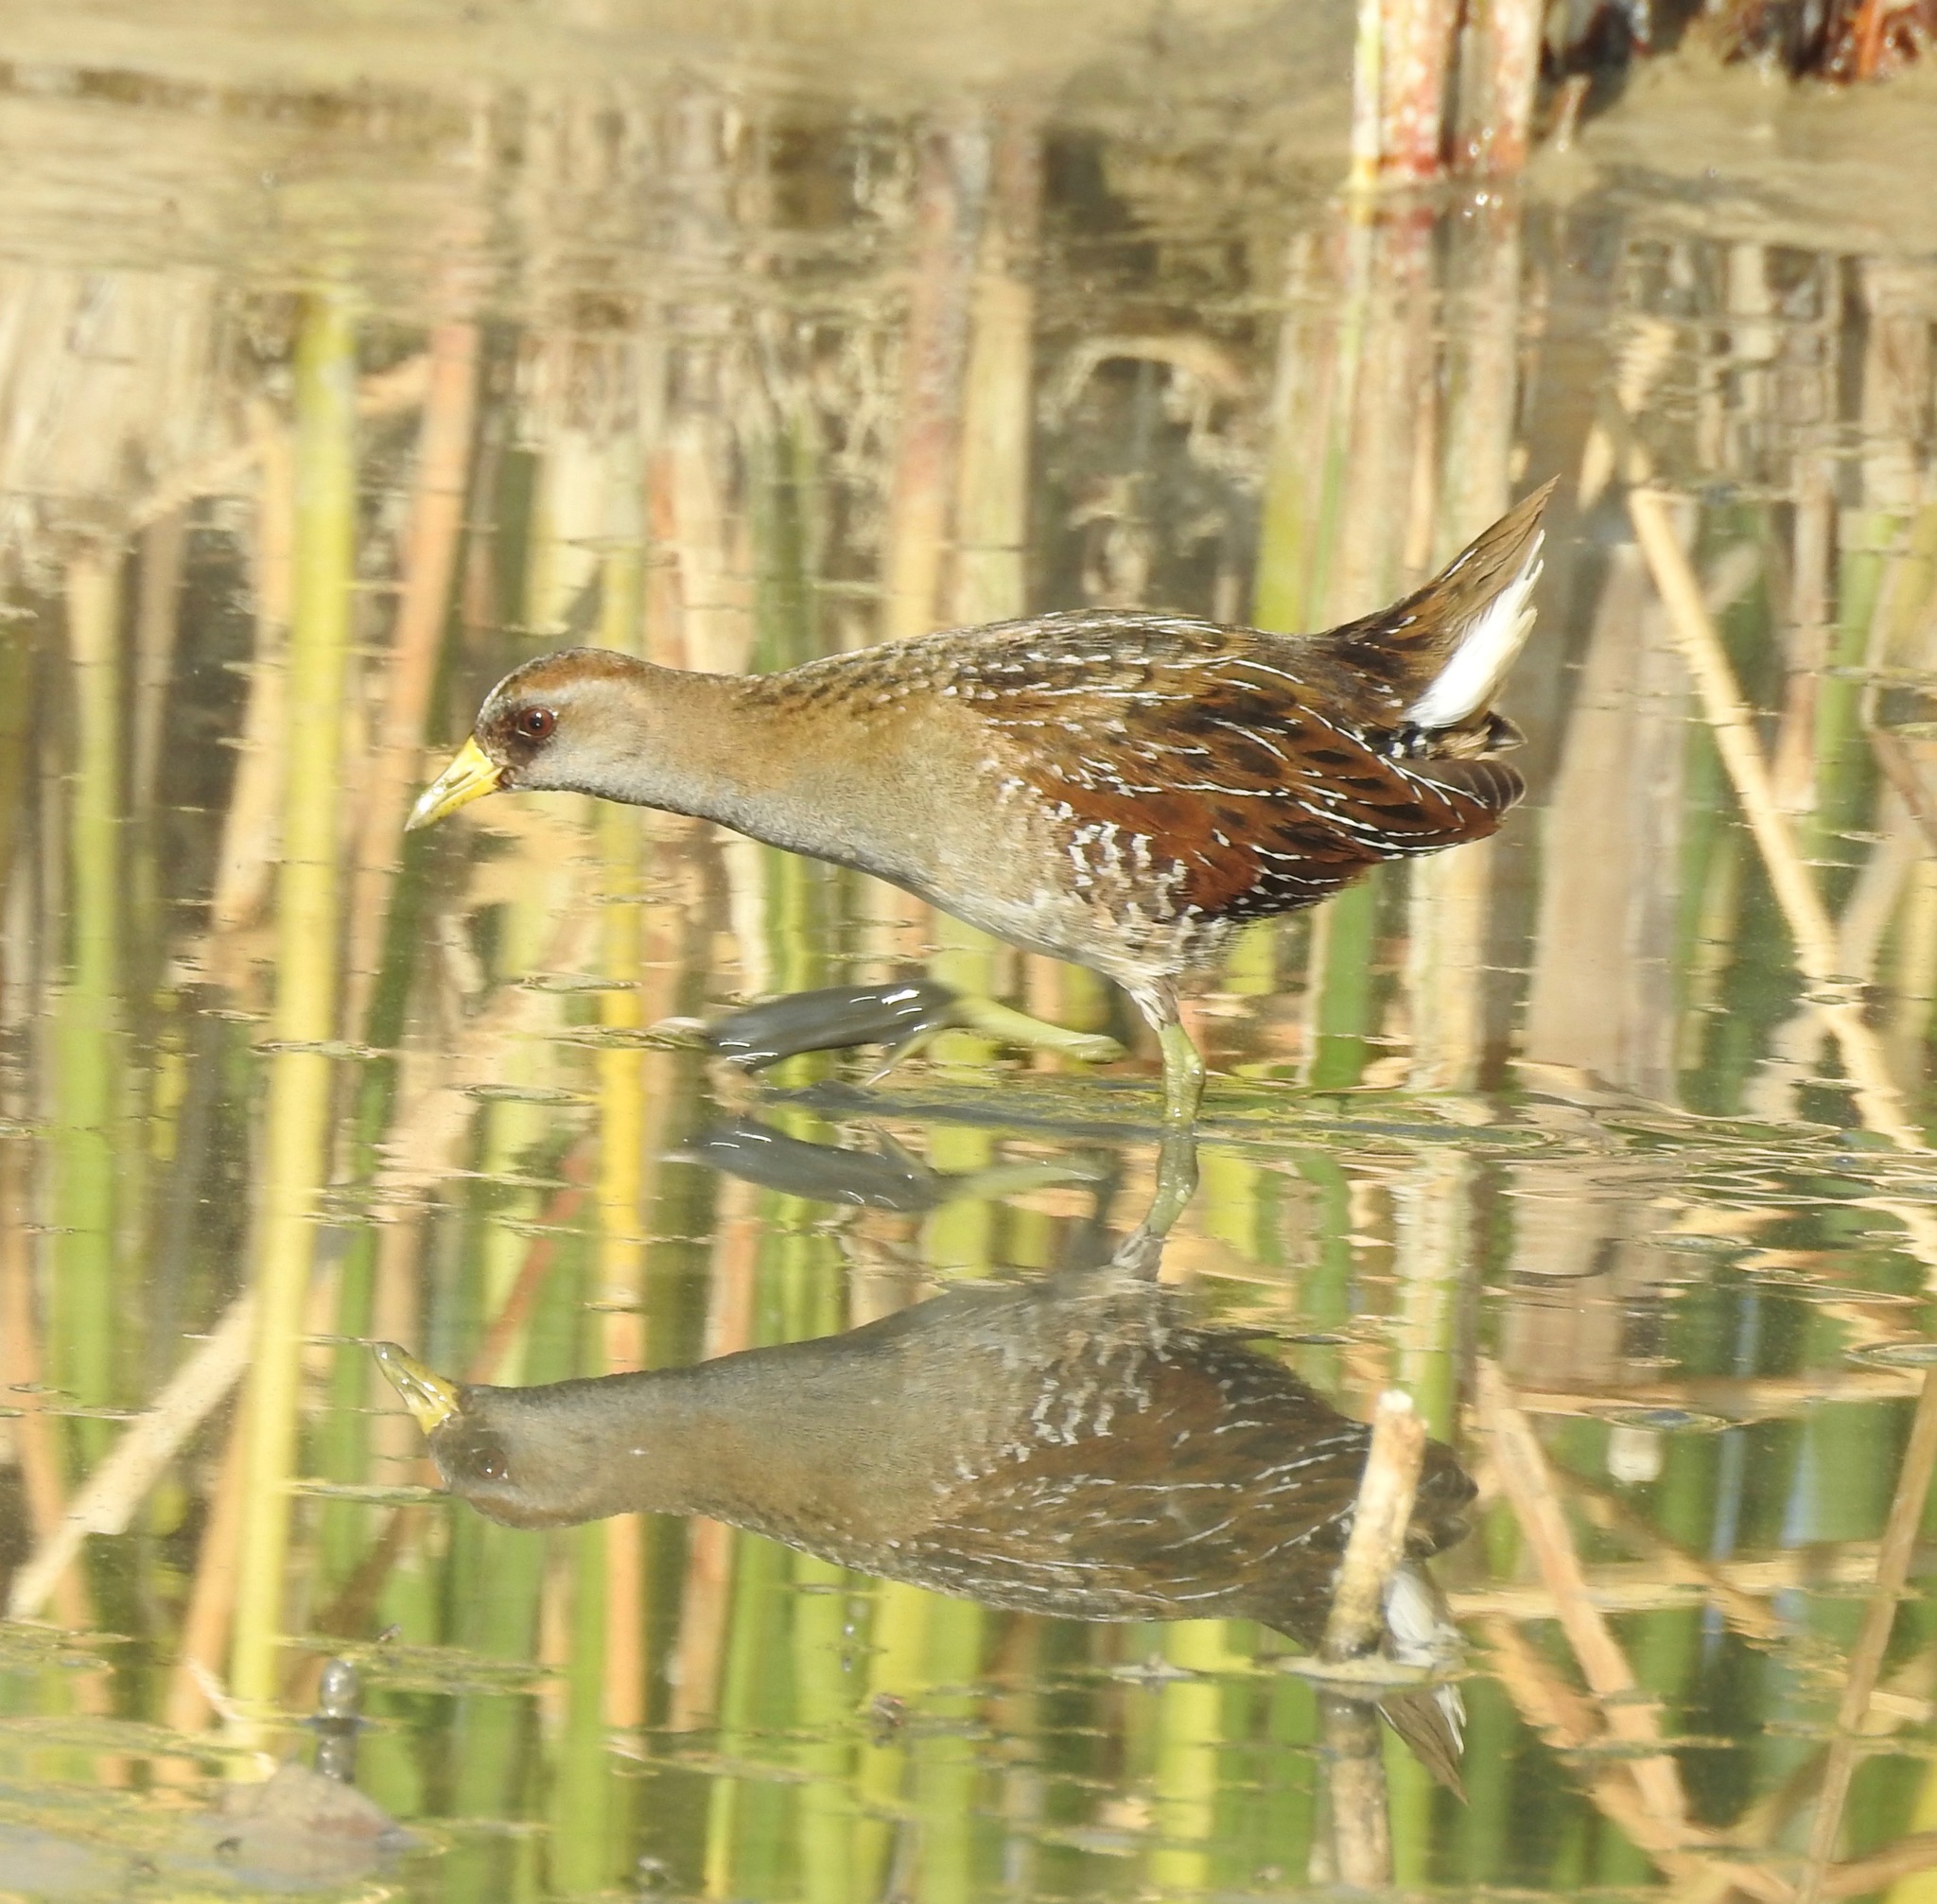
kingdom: Animalia
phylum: Chordata
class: Aves
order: Gruiformes
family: Rallidae
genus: Porzana
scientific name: Porzana carolina
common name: Sora
